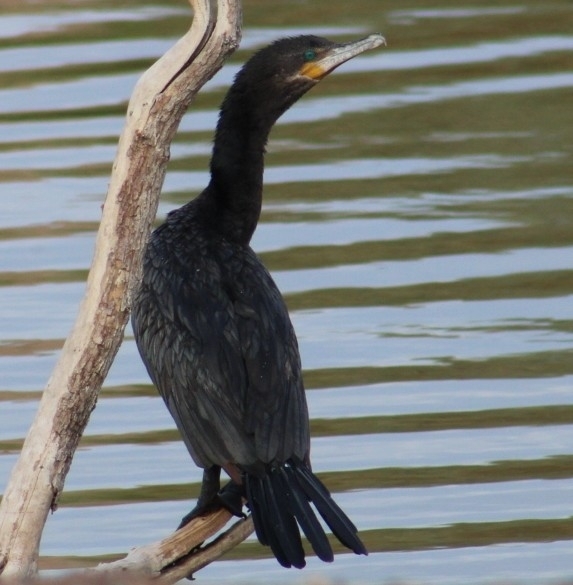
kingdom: Animalia
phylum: Chordata
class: Aves
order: Suliformes
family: Phalacrocoracidae
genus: Phalacrocorax
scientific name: Phalacrocorax brasilianus
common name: Neotropic cormorant
